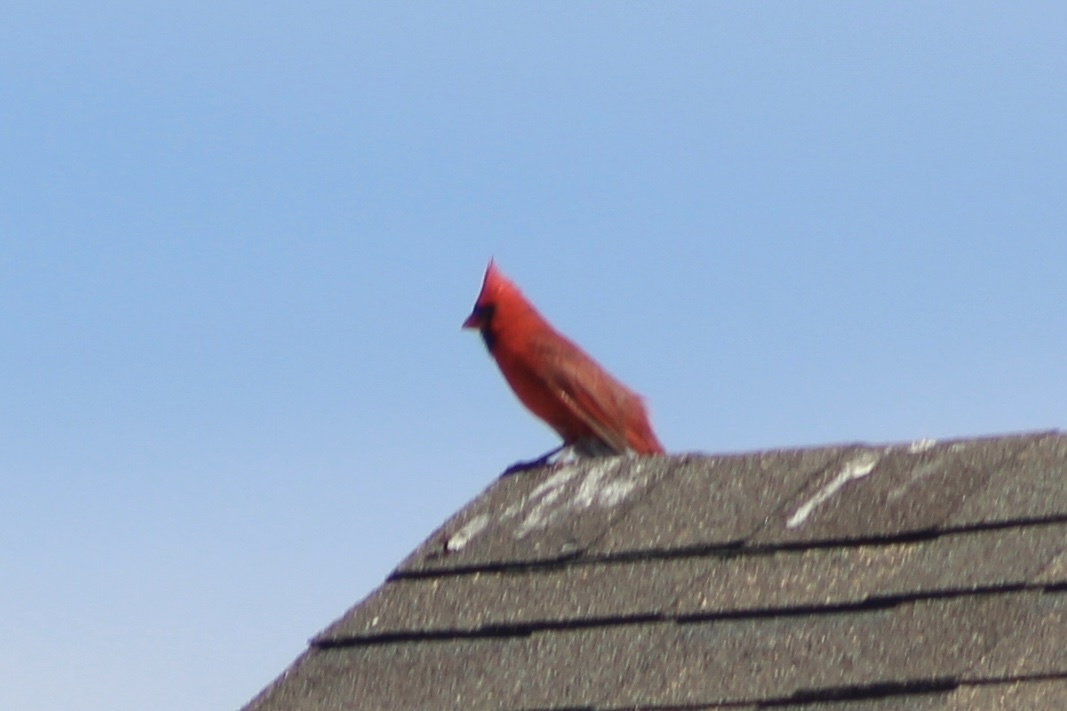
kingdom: Animalia
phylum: Chordata
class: Aves
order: Passeriformes
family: Cardinalidae
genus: Cardinalis
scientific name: Cardinalis cardinalis
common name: Northern cardinal
